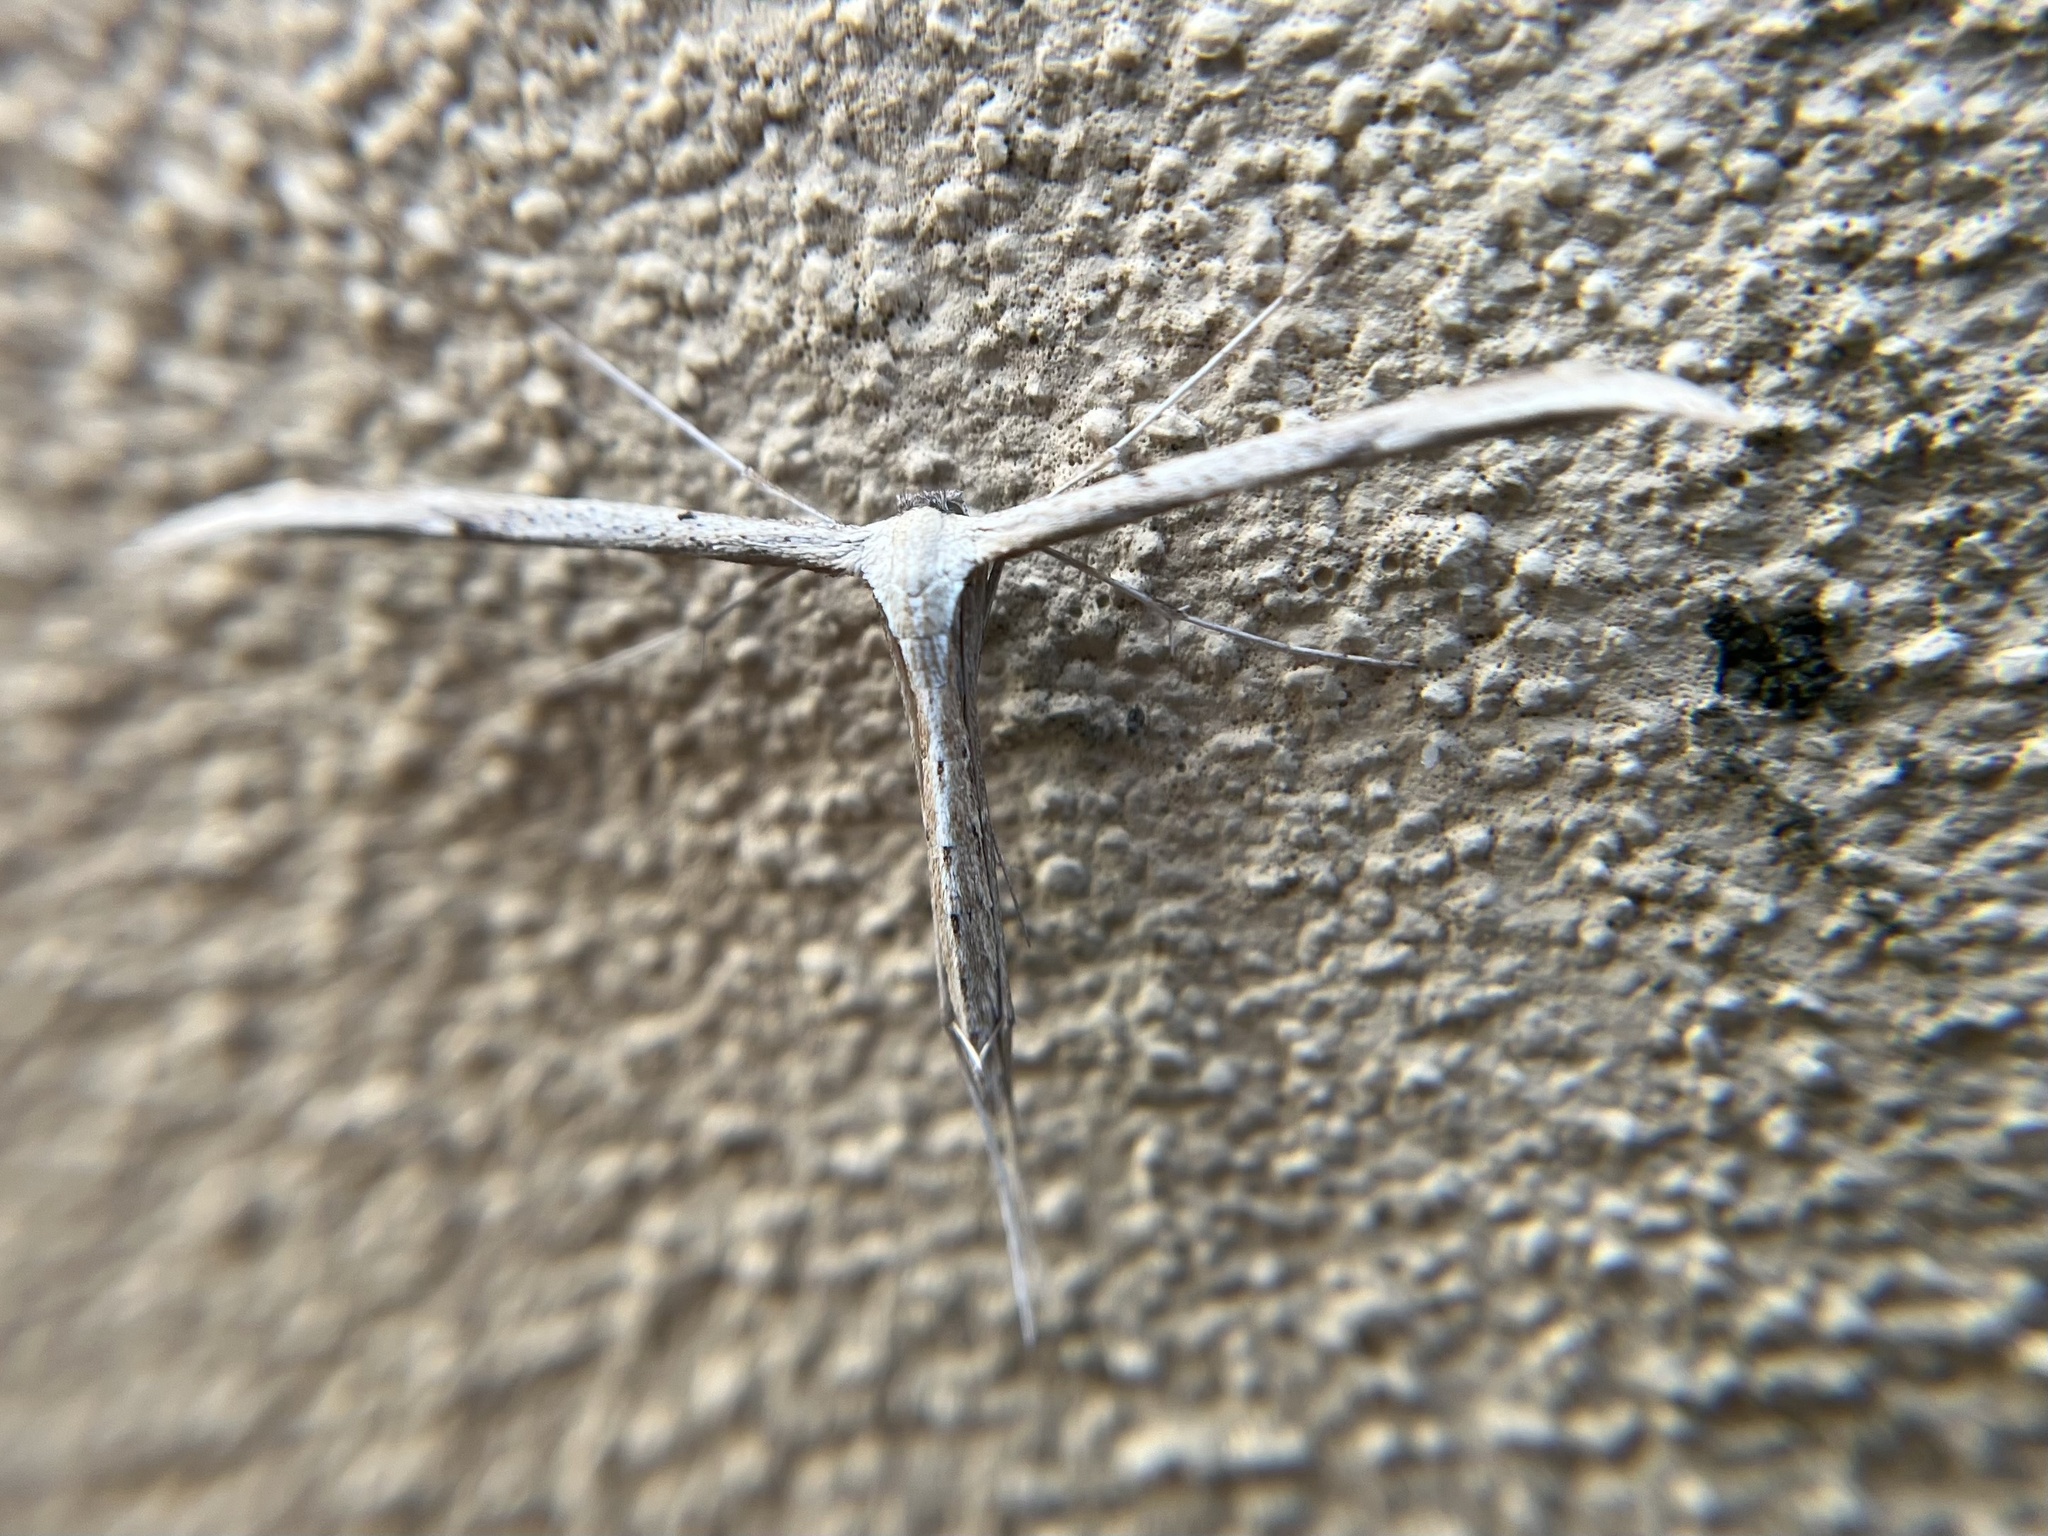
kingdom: Animalia
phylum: Arthropoda
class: Insecta
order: Lepidoptera
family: Pterophoridae
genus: Emmelina
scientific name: Emmelina monodactyla
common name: Common plume
